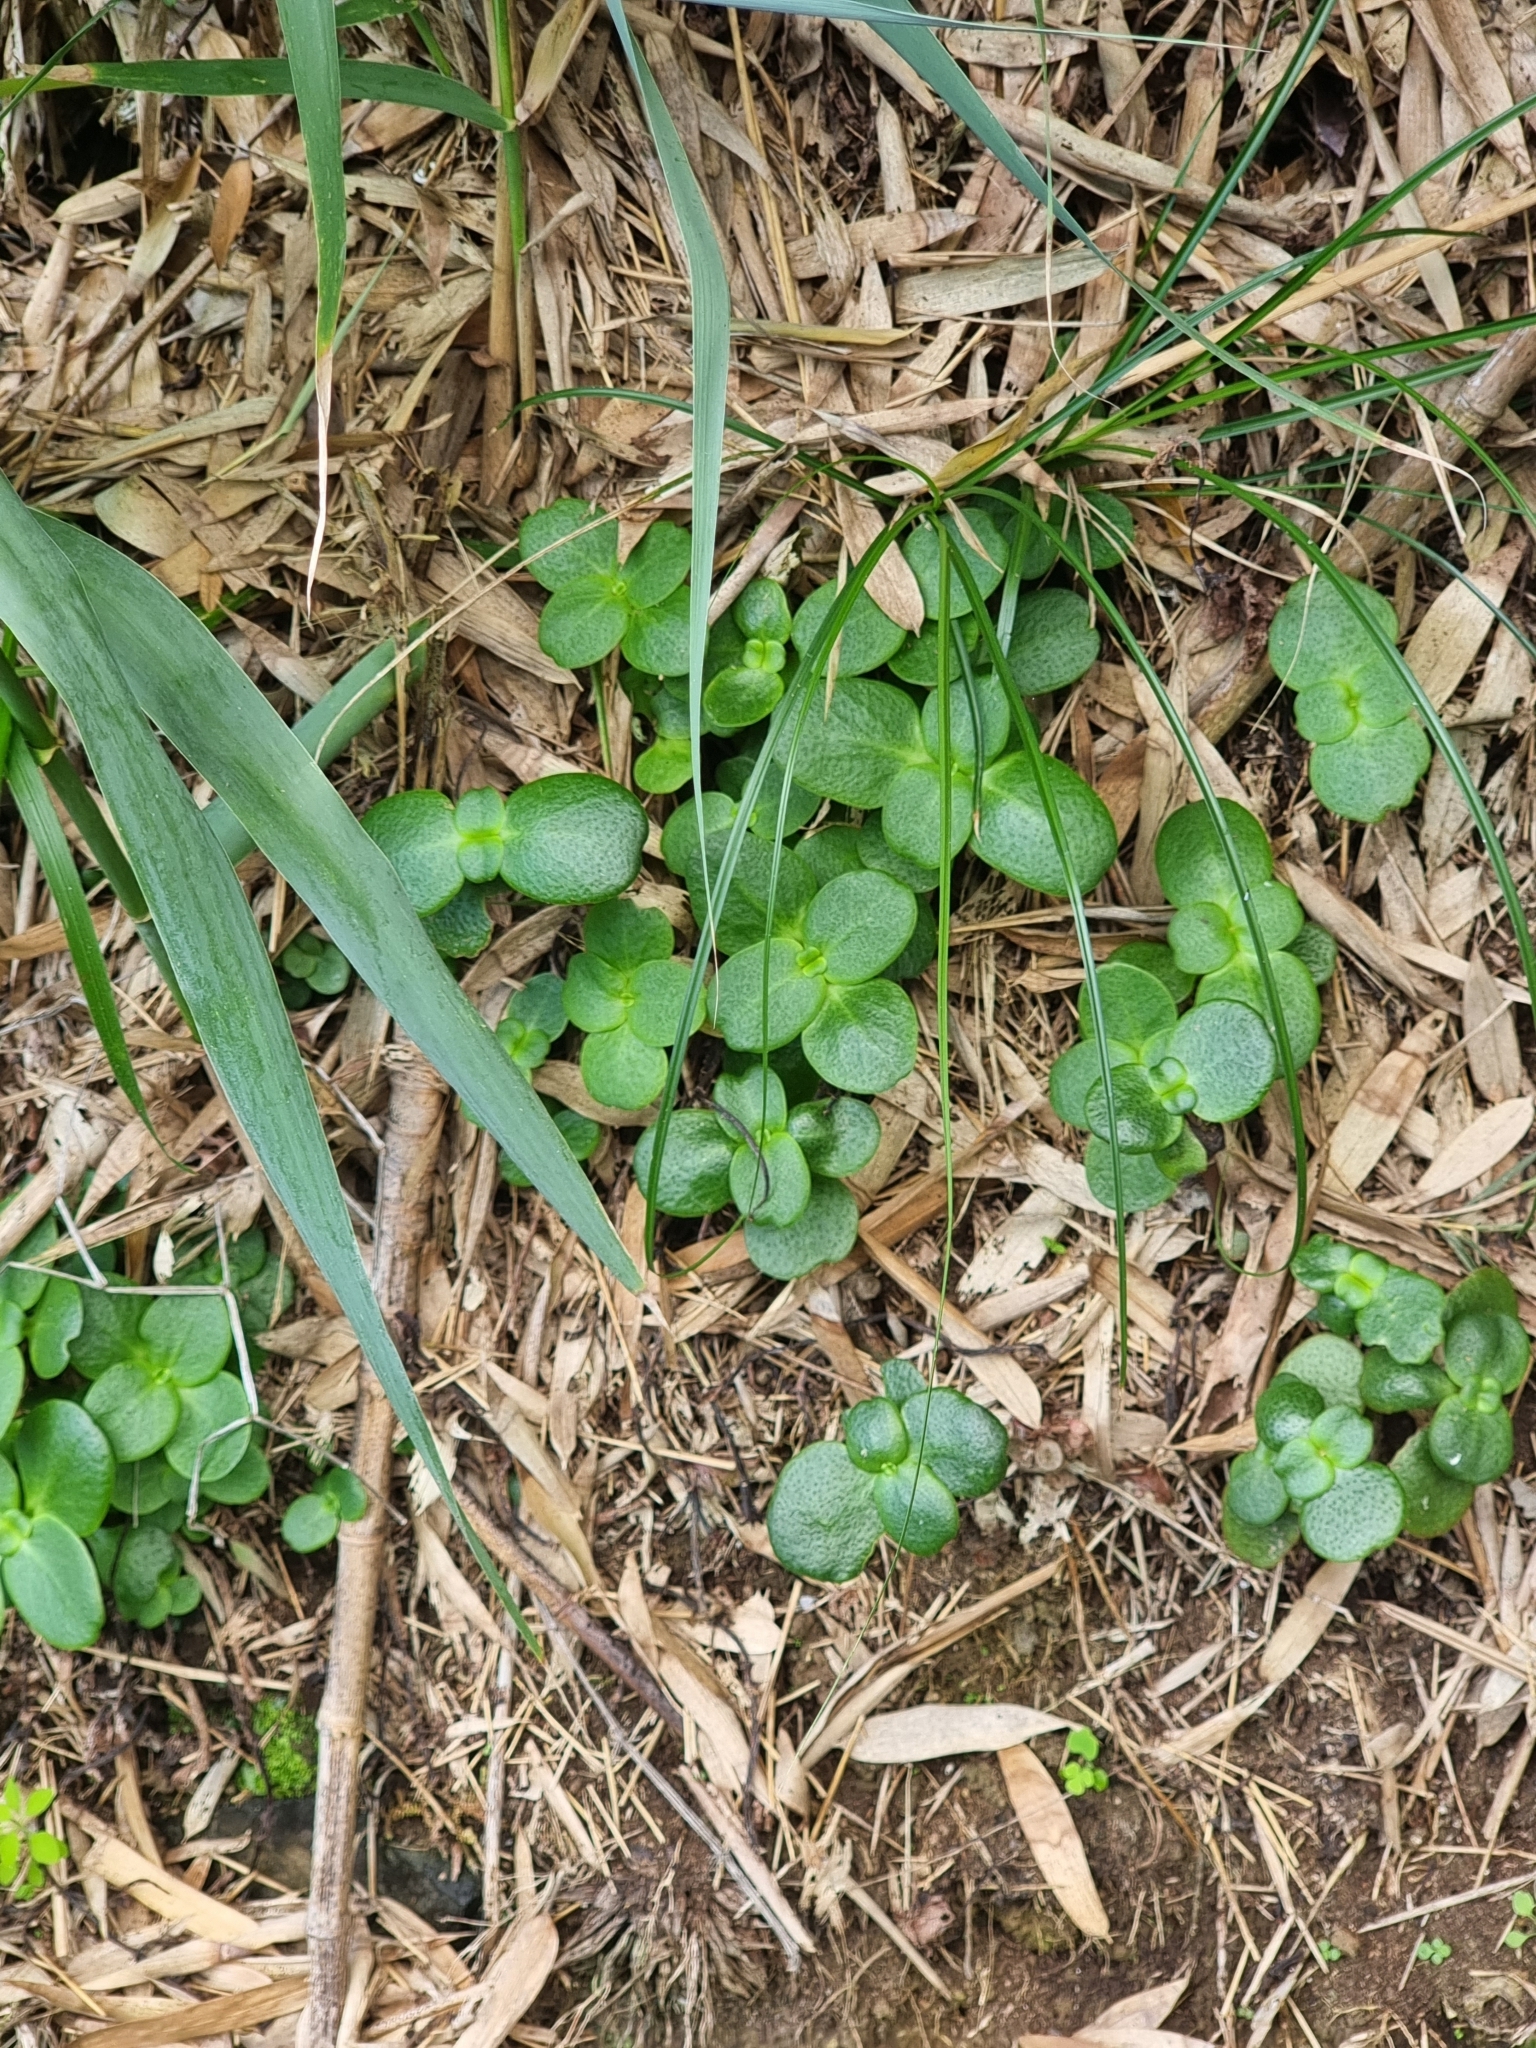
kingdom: Plantae
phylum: Tracheophyta
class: Magnoliopsida
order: Saxifragales
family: Crassulaceae
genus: Crassula
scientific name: Crassula multicava
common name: Cape province pygmyweed
